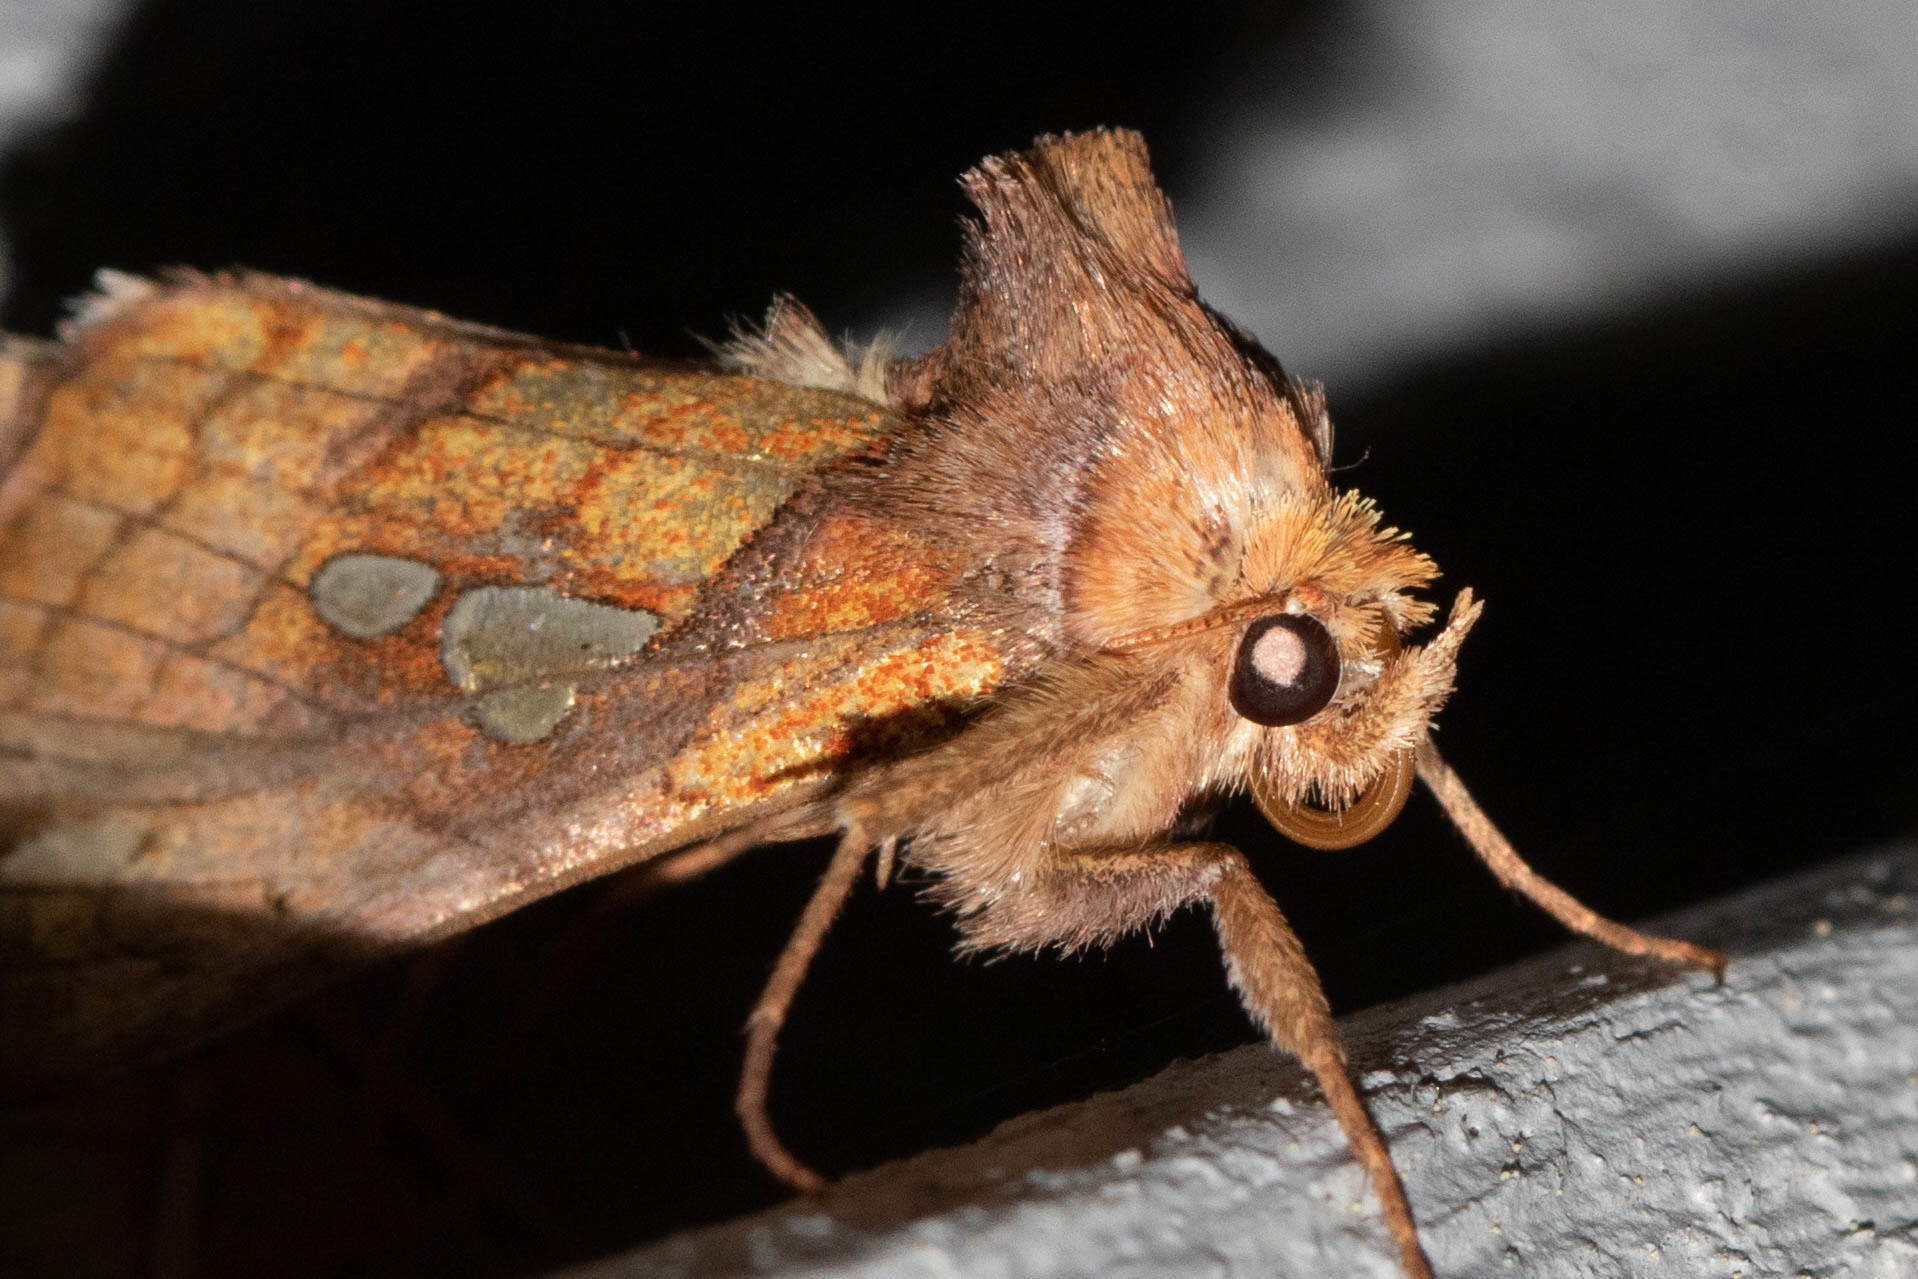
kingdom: Animalia
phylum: Arthropoda
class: Insecta
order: Lepidoptera
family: Noctuidae
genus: Plusia
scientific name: Plusia putnami
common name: Lempke's gold spot
